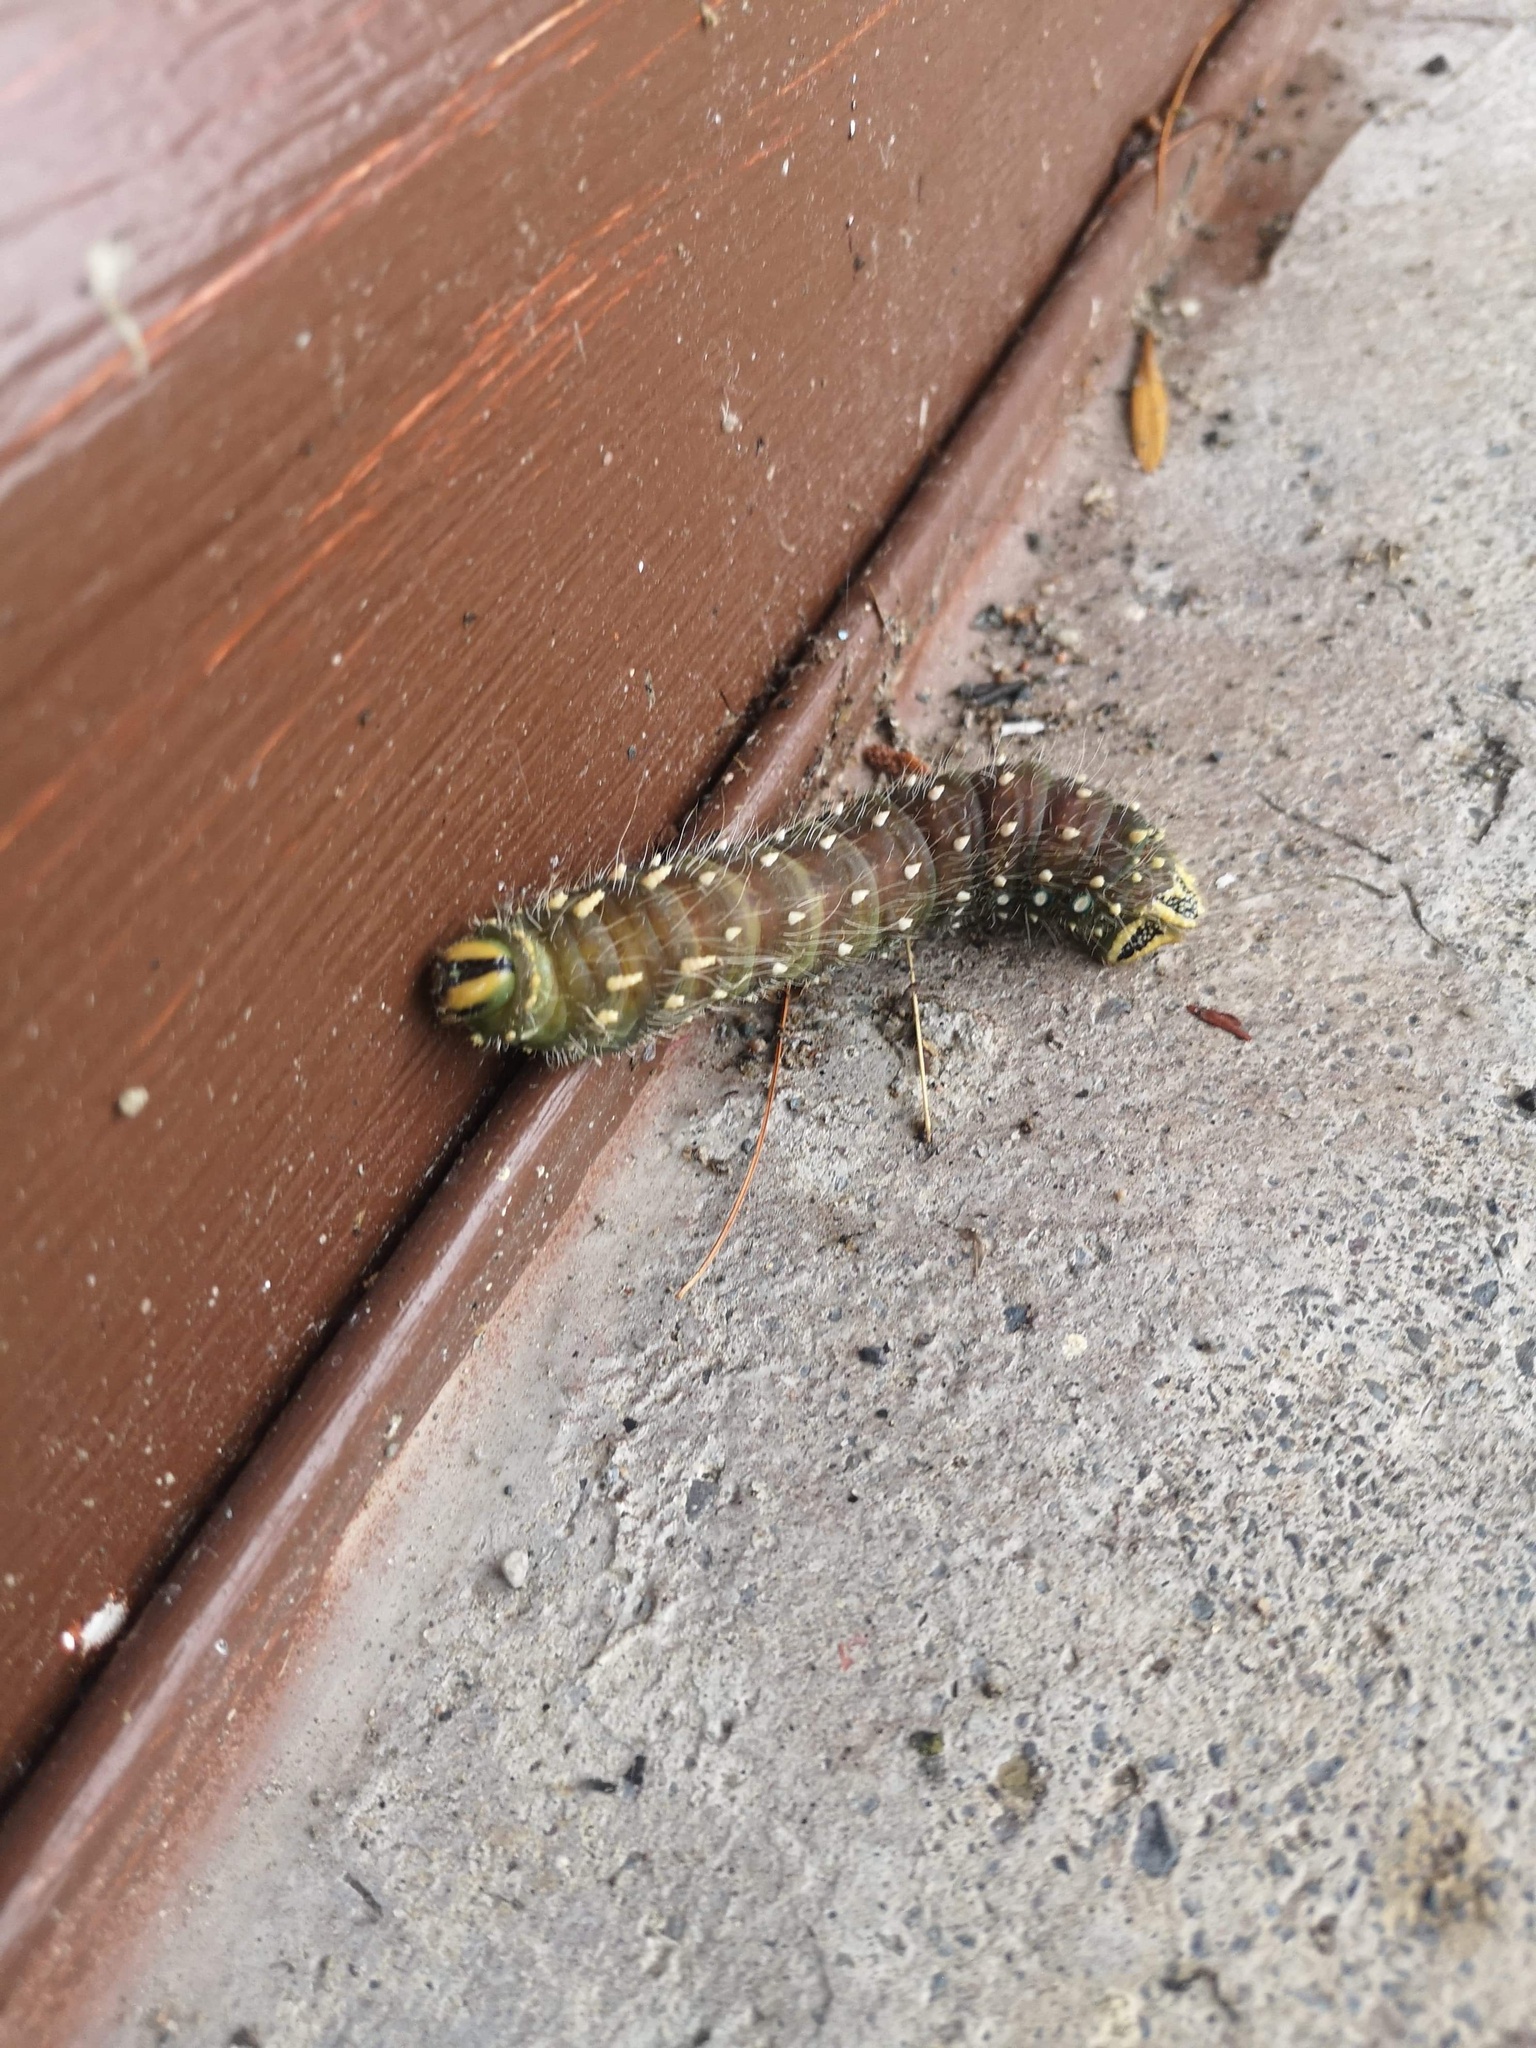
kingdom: Animalia
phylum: Arthropoda
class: Insecta
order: Lepidoptera
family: Saturniidae
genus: Eacles
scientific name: Eacles
